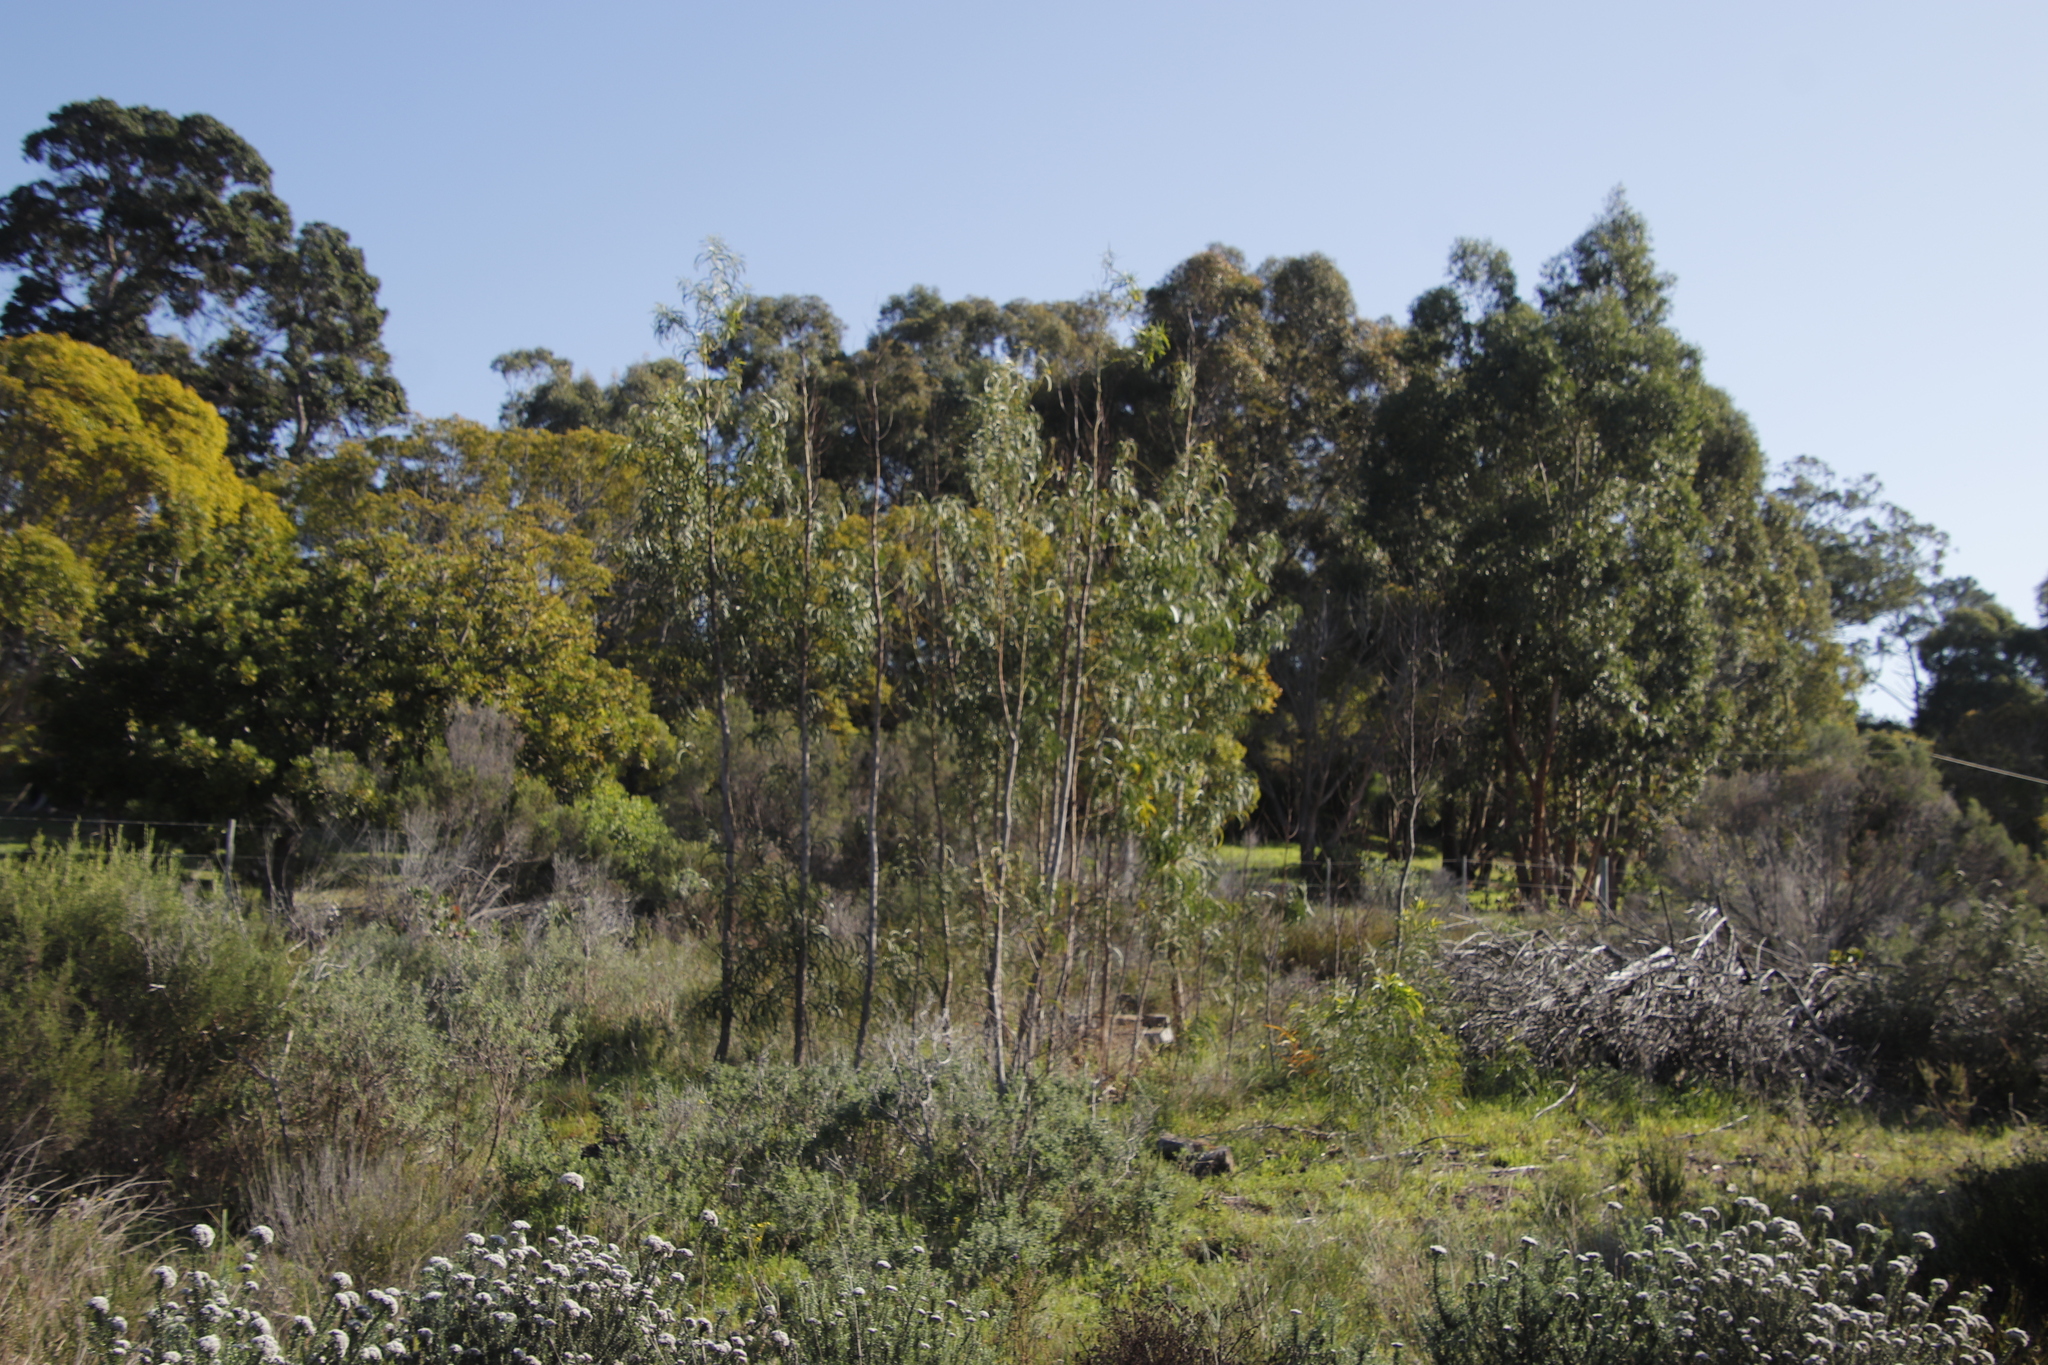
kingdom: Plantae
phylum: Tracheophyta
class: Magnoliopsida
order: Fabales
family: Fabaceae
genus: Acacia
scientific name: Acacia implexa
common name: Black wattle
